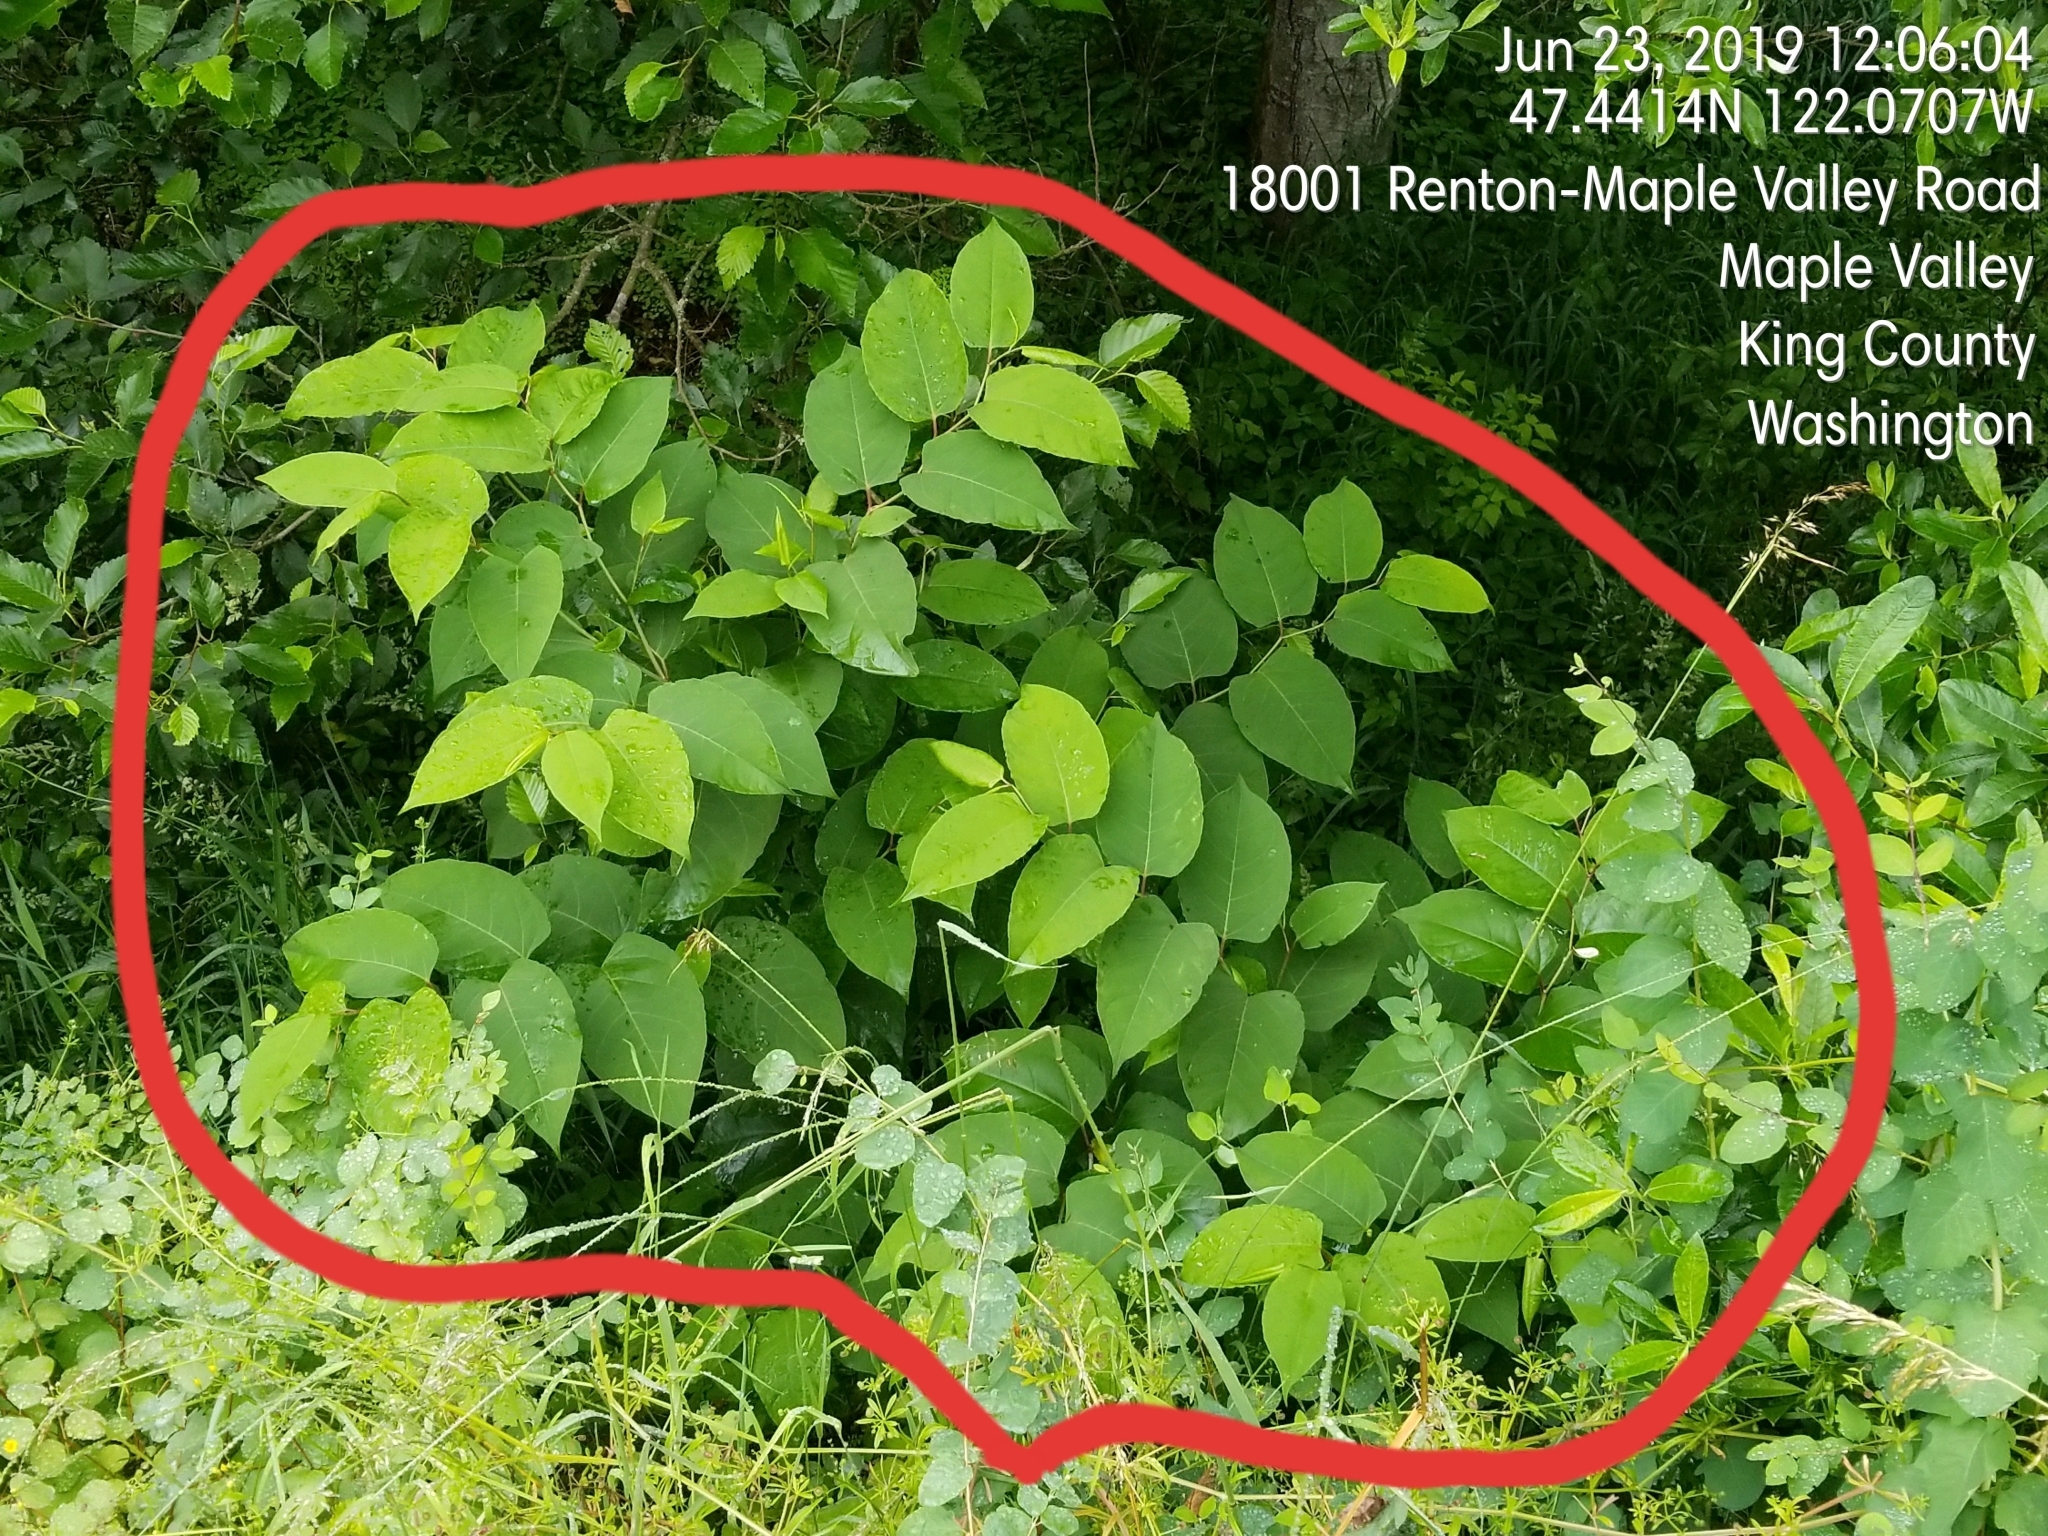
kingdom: Plantae
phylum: Tracheophyta
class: Magnoliopsida
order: Caryophyllales
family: Polygonaceae
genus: Reynoutria
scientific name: Reynoutria bohemica
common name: Bohemian knotweed
